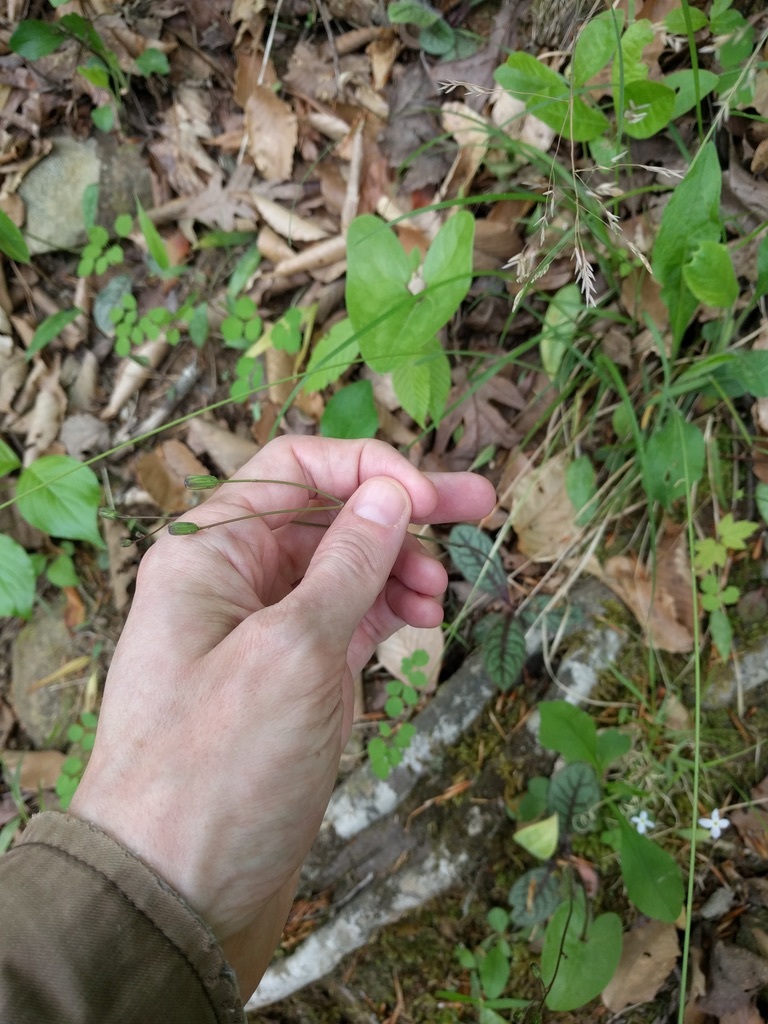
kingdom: Plantae
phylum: Tracheophyta
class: Magnoliopsida
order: Asterales
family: Asteraceae
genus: Hieracium
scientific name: Hieracium venosum
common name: Rattlesnake hawkweed
